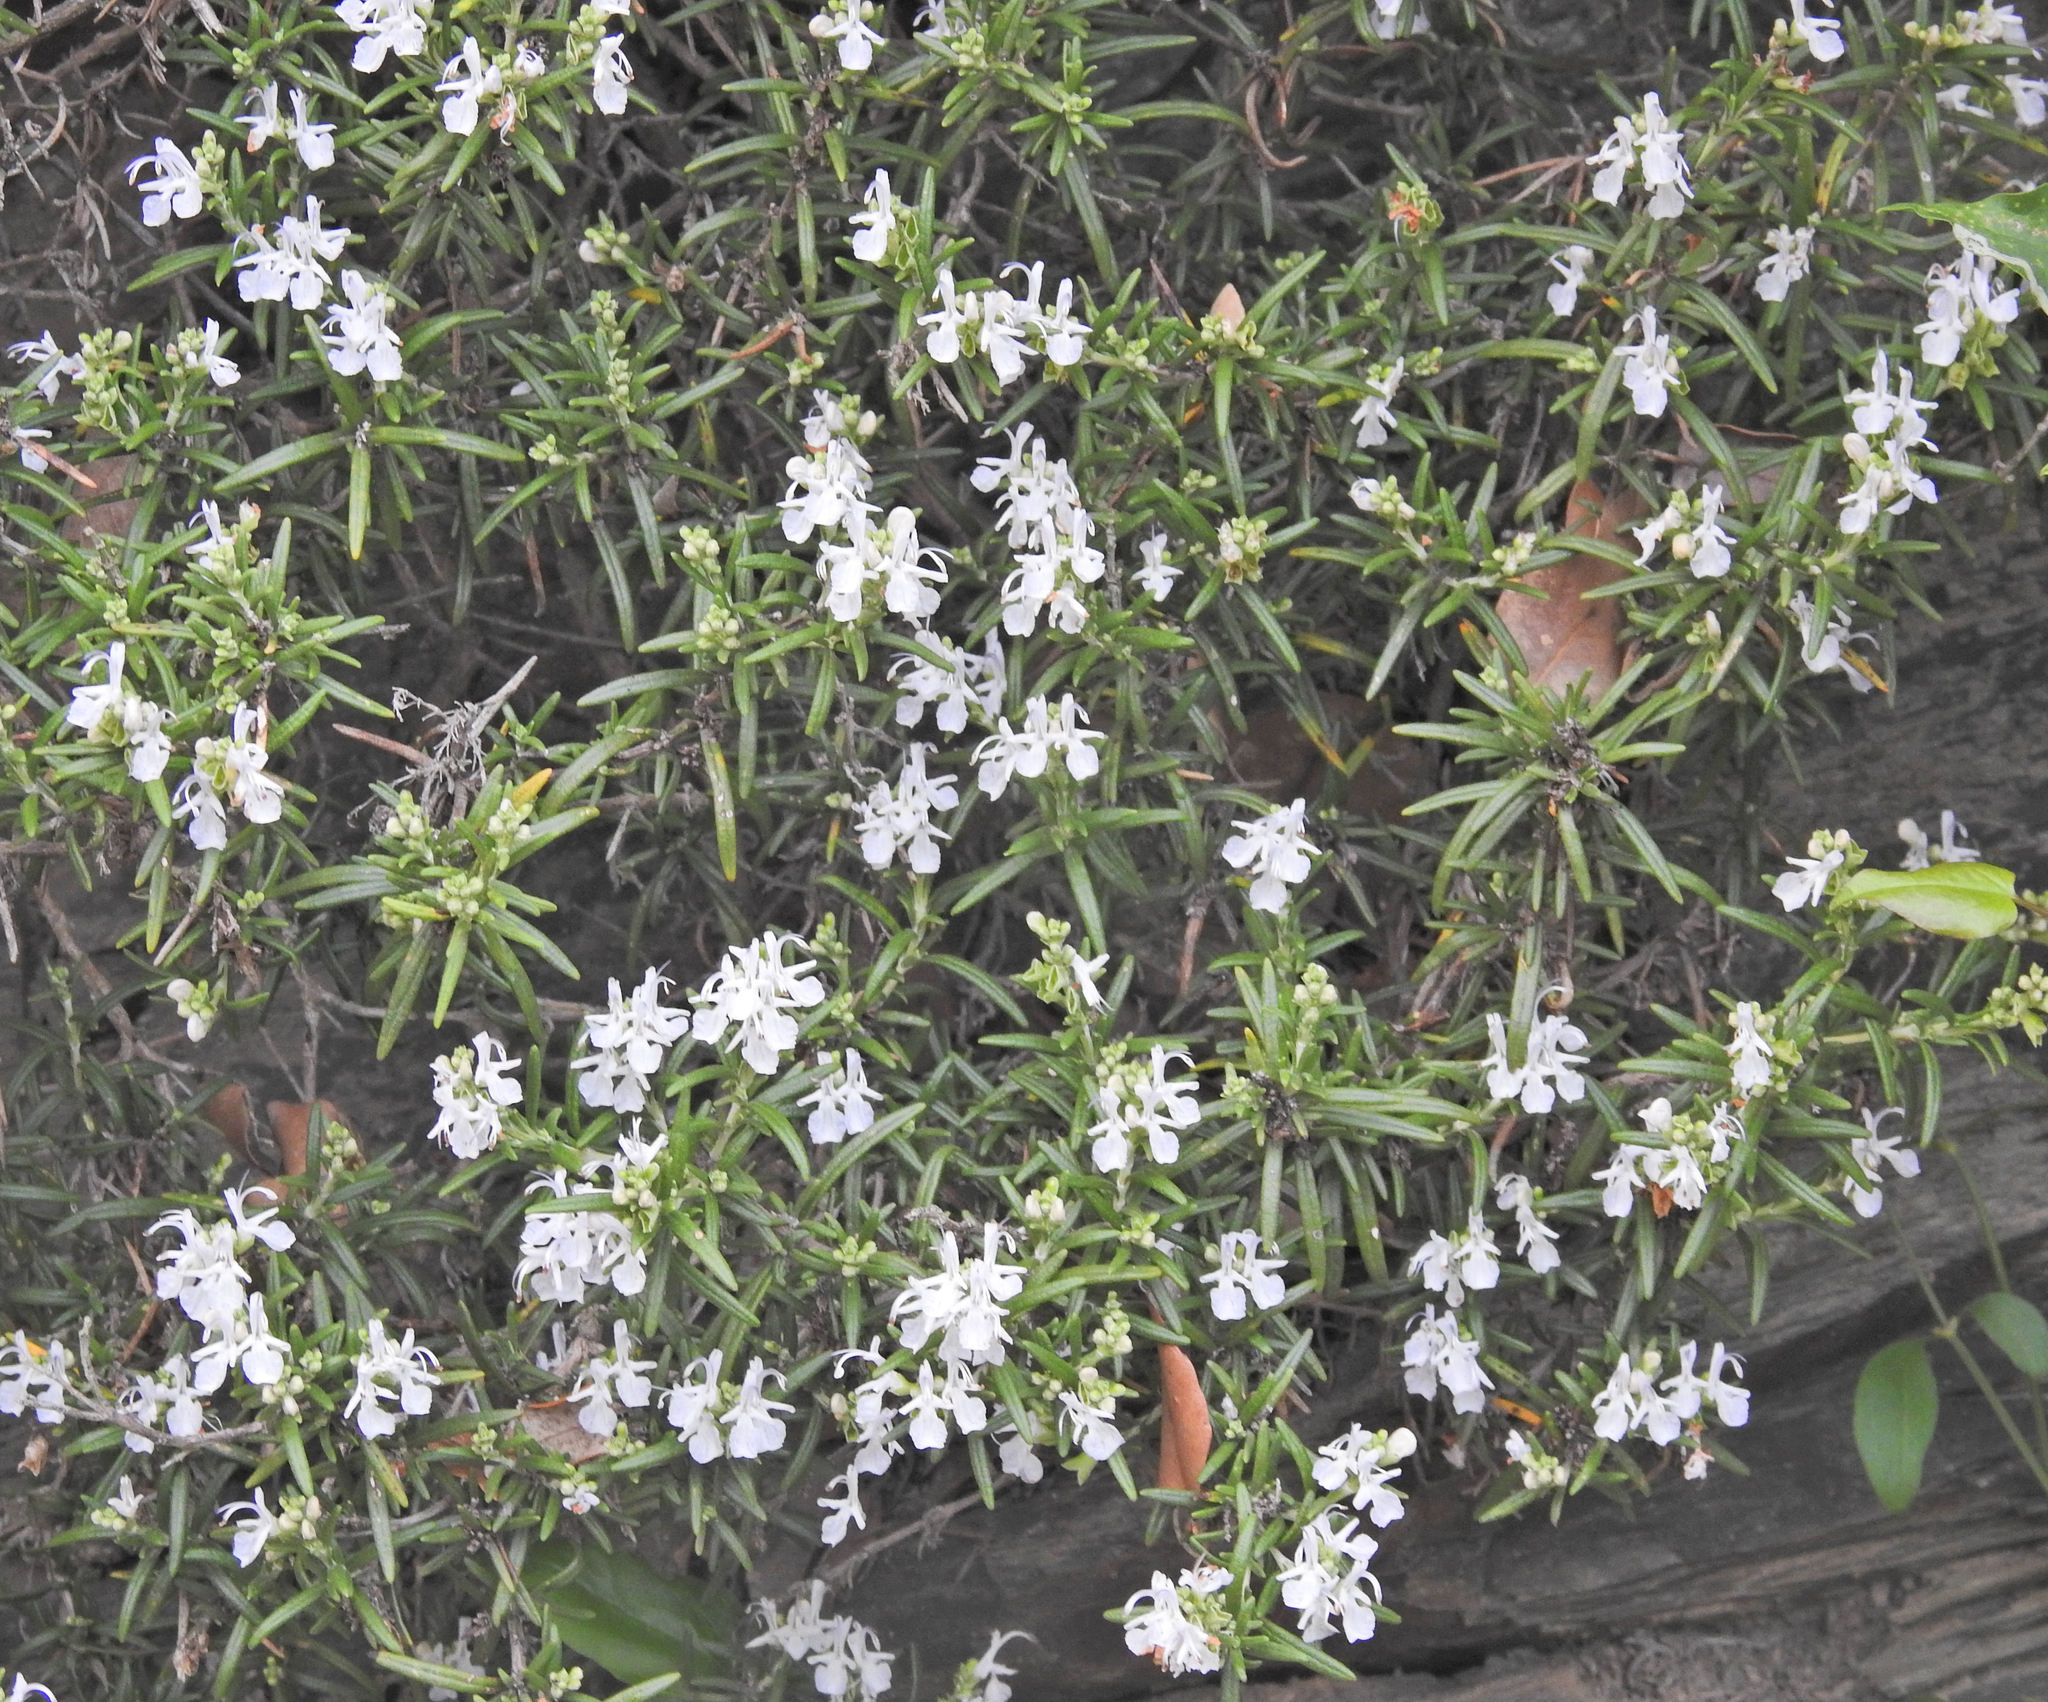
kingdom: Plantae
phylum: Tracheophyta
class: Magnoliopsida
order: Lamiales
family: Lamiaceae
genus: Salvia
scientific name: Salvia rosmarinus
